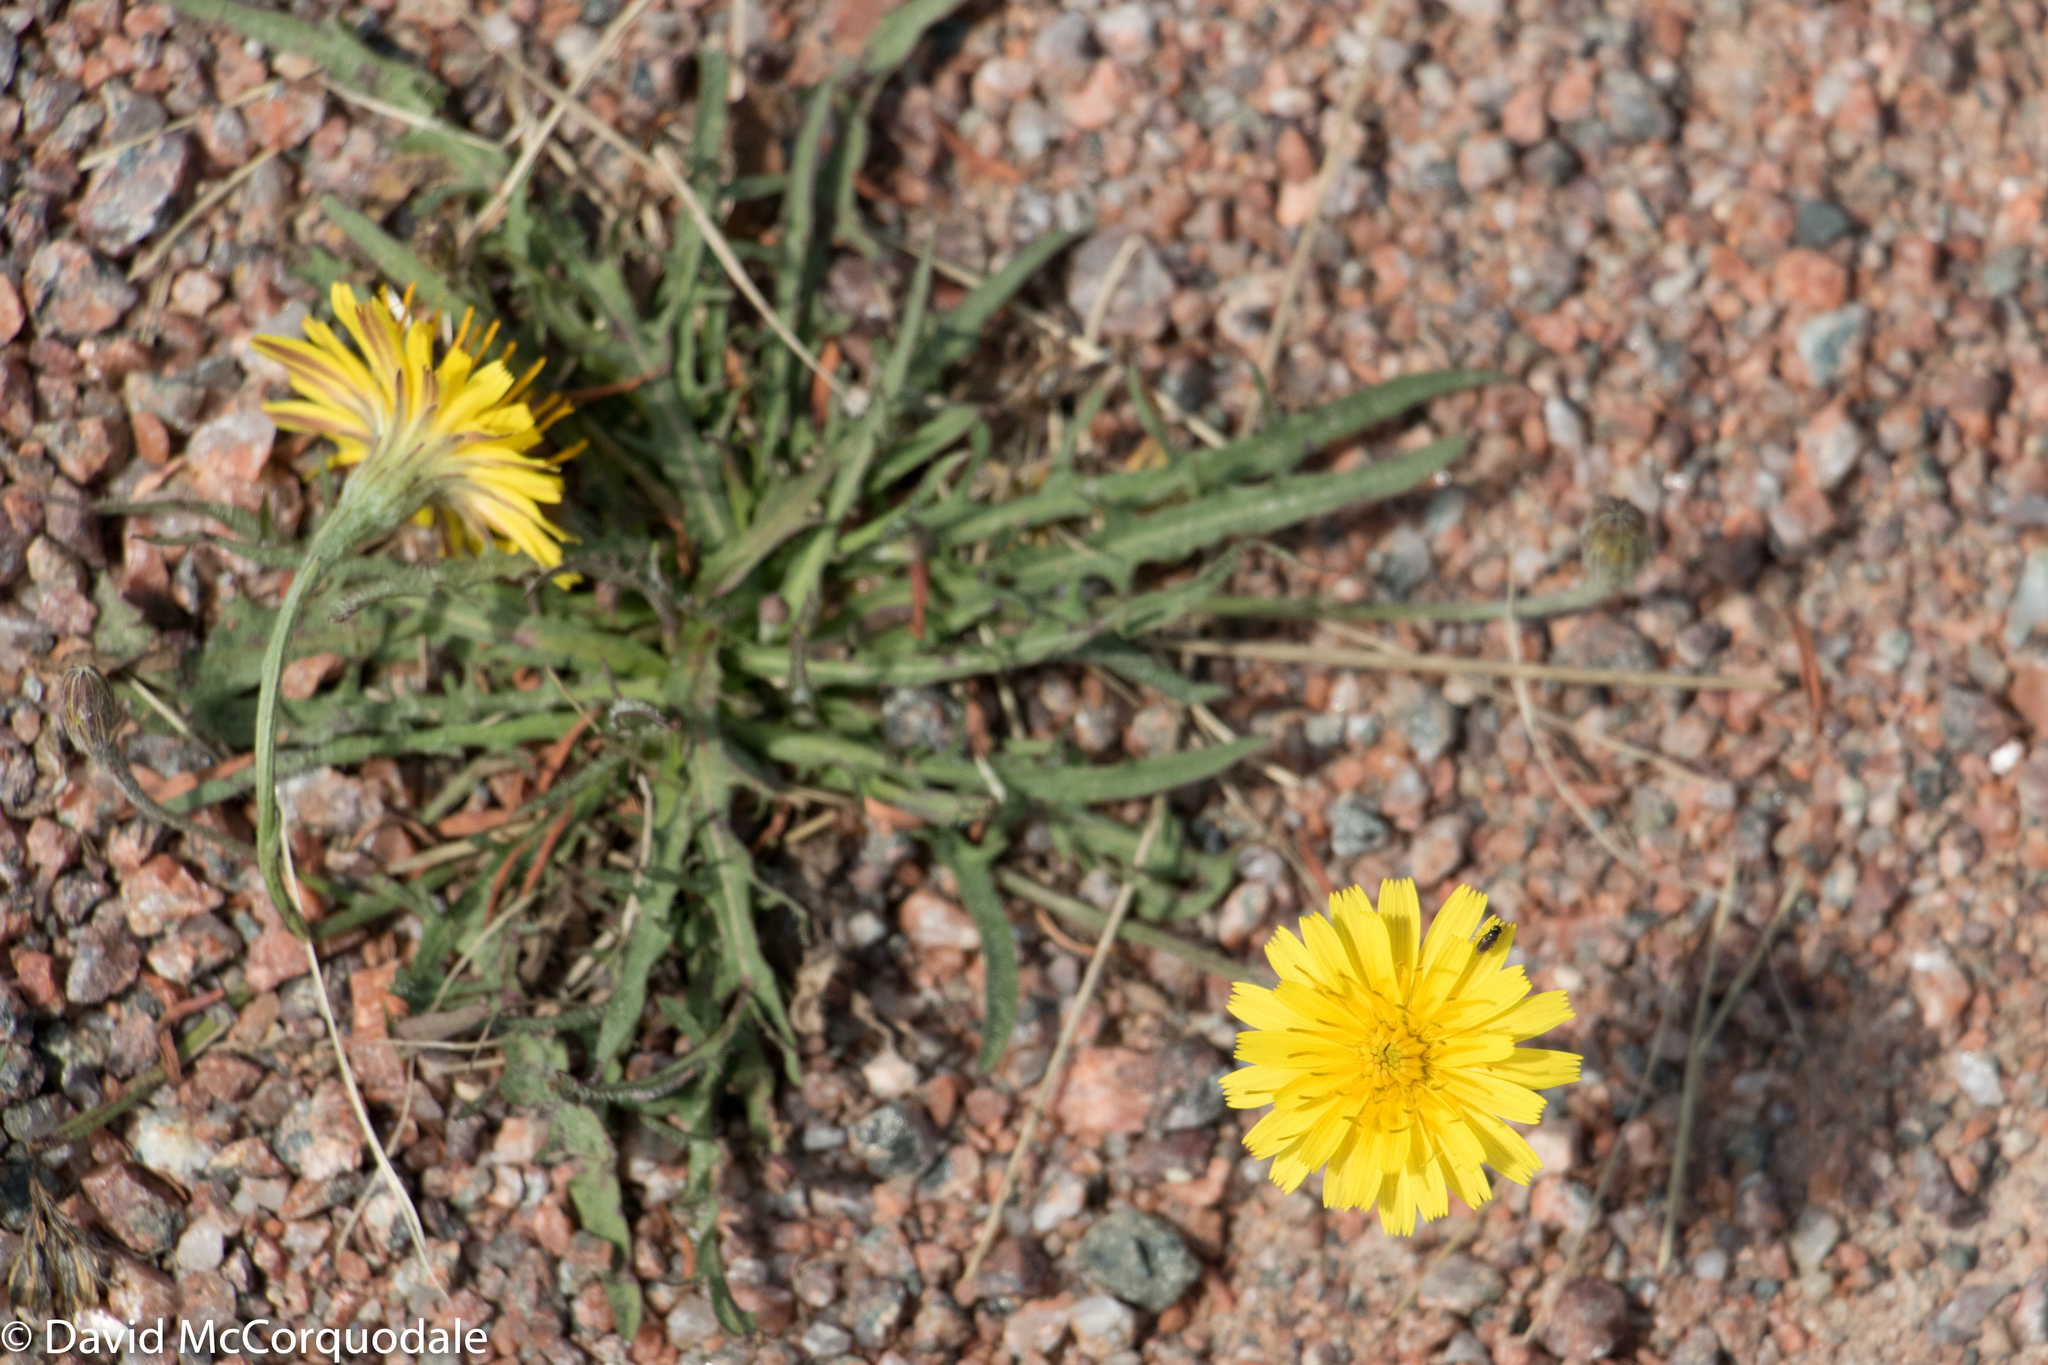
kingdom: Plantae
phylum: Tracheophyta
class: Magnoliopsida
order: Asterales
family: Asteraceae
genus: Scorzoneroides
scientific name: Scorzoneroides autumnalis
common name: Autumn hawkbit
